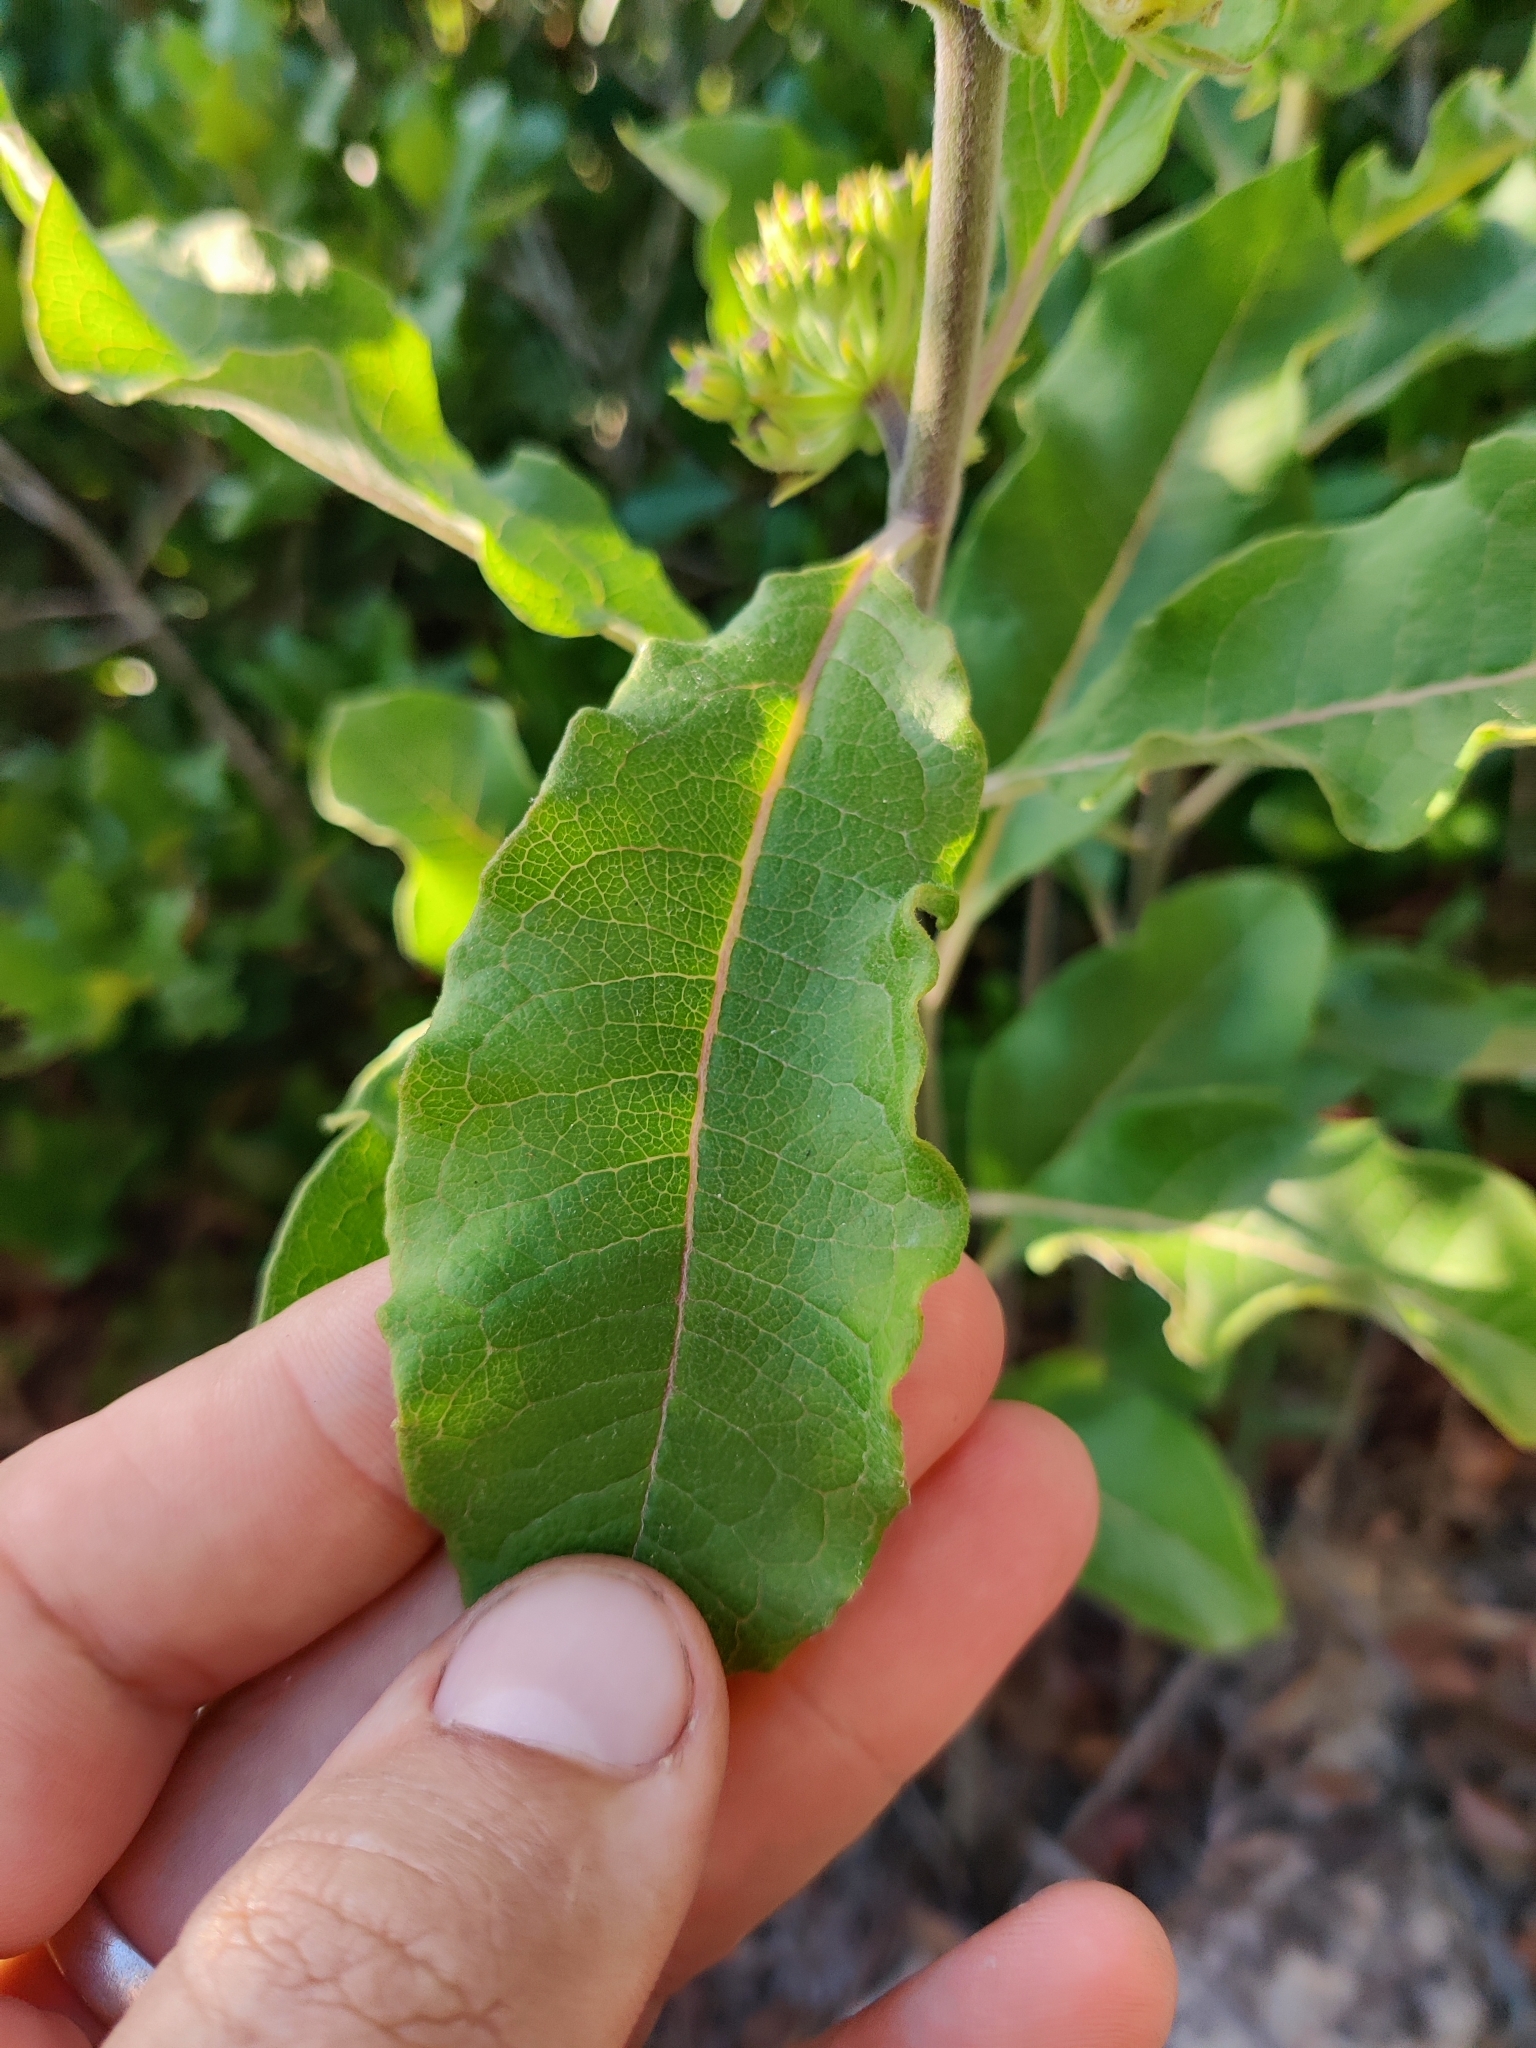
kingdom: Plantae
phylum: Tracheophyta
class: Magnoliopsida
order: Gentianales
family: Apocynaceae
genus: Asclepias
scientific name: Asclepias tomentosa
